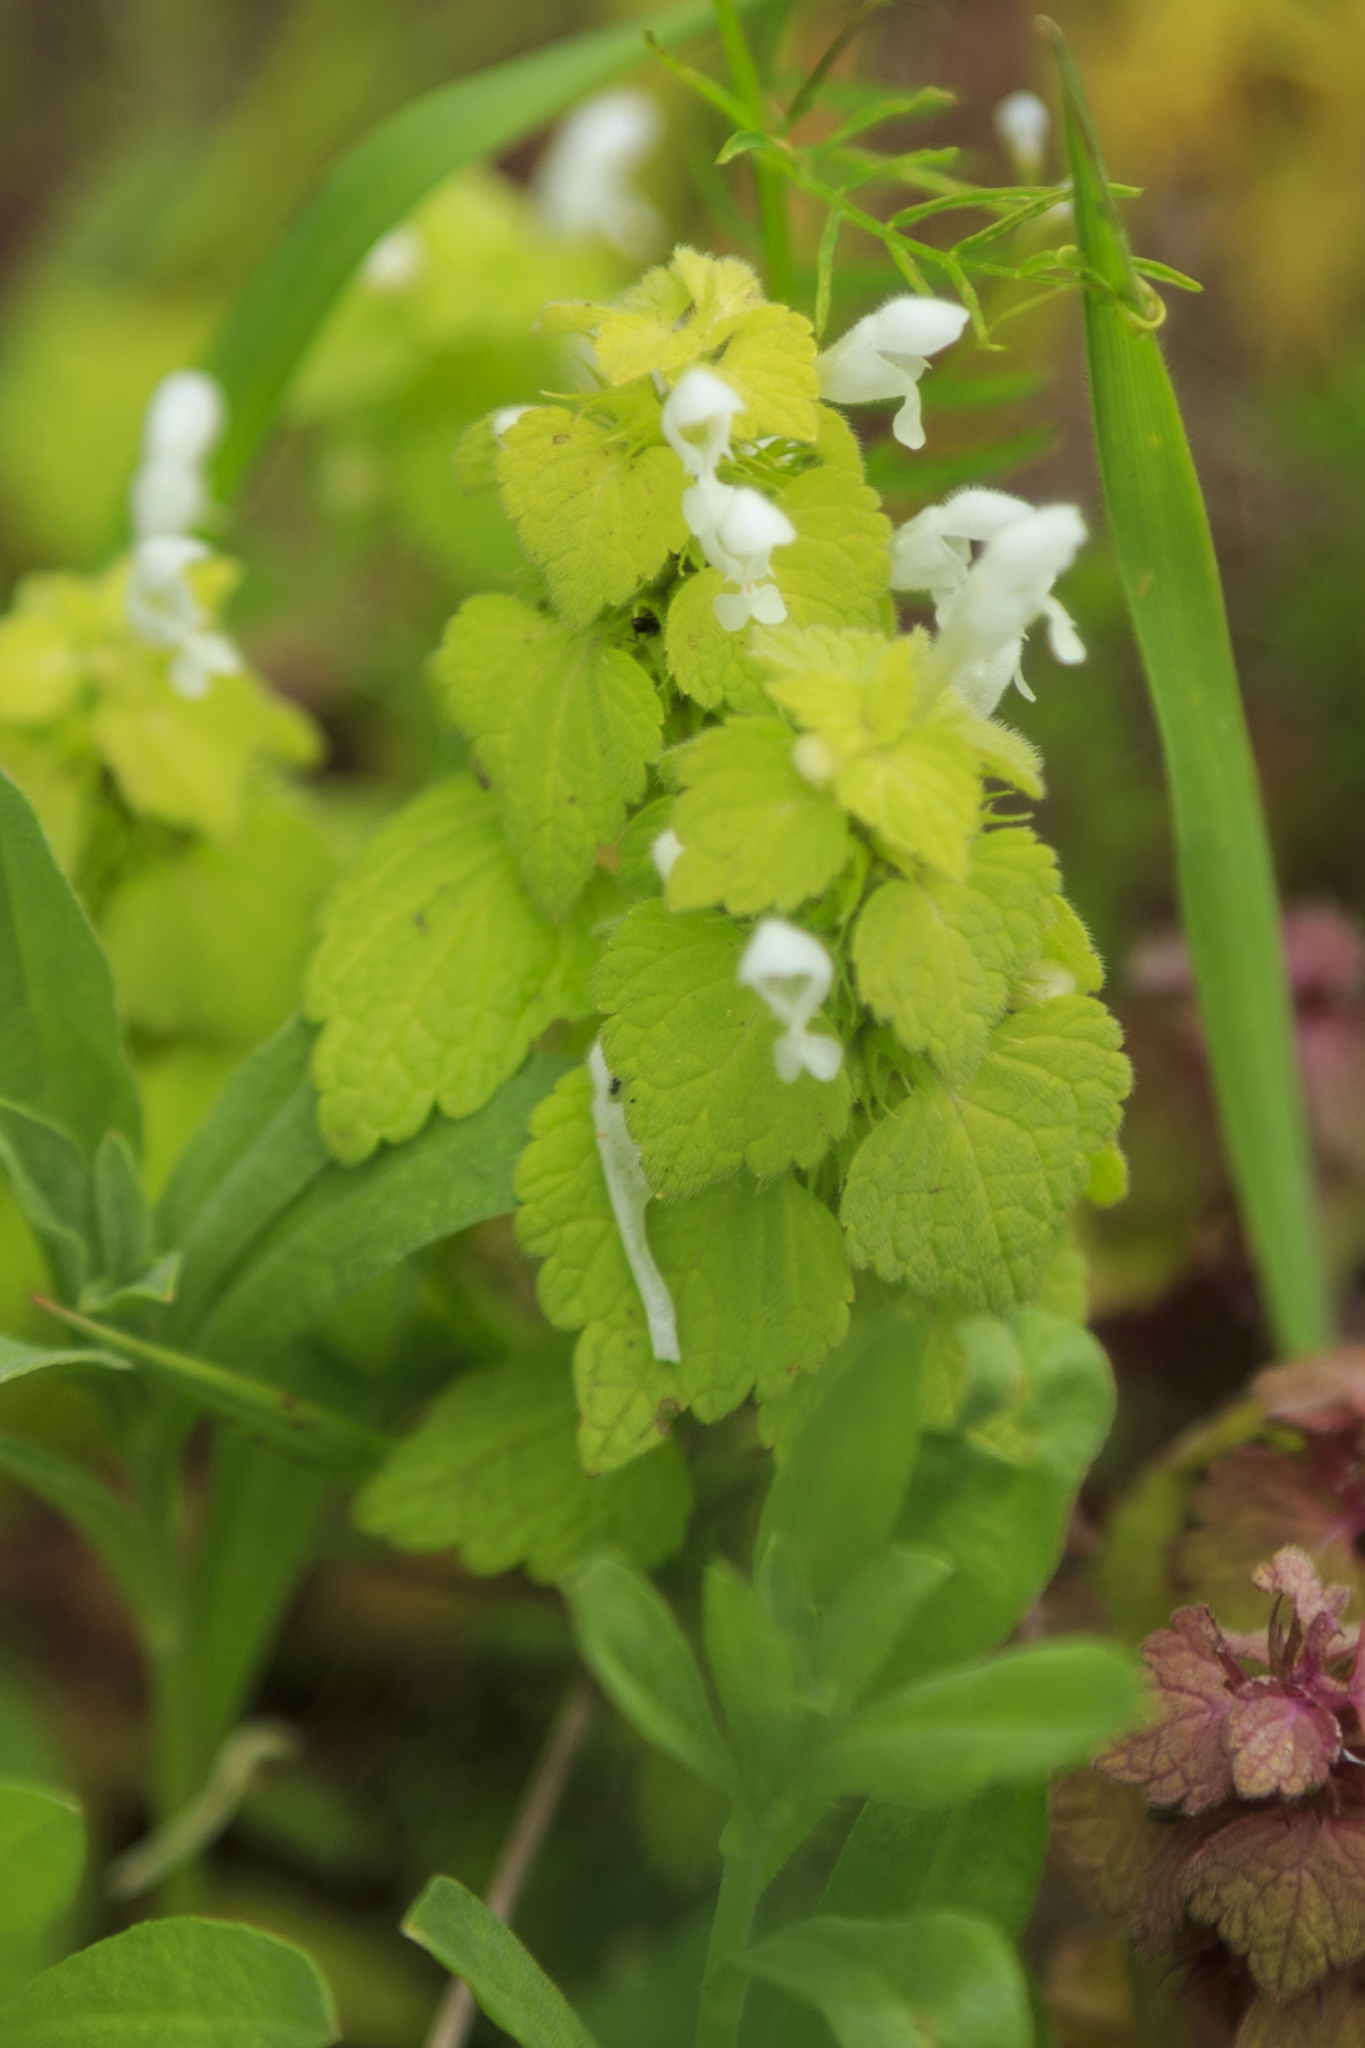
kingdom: Plantae
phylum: Tracheophyta
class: Magnoliopsida
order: Lamiales
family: Lamiaceae
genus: Lamium
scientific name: Lamium album
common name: White dead-nettle
